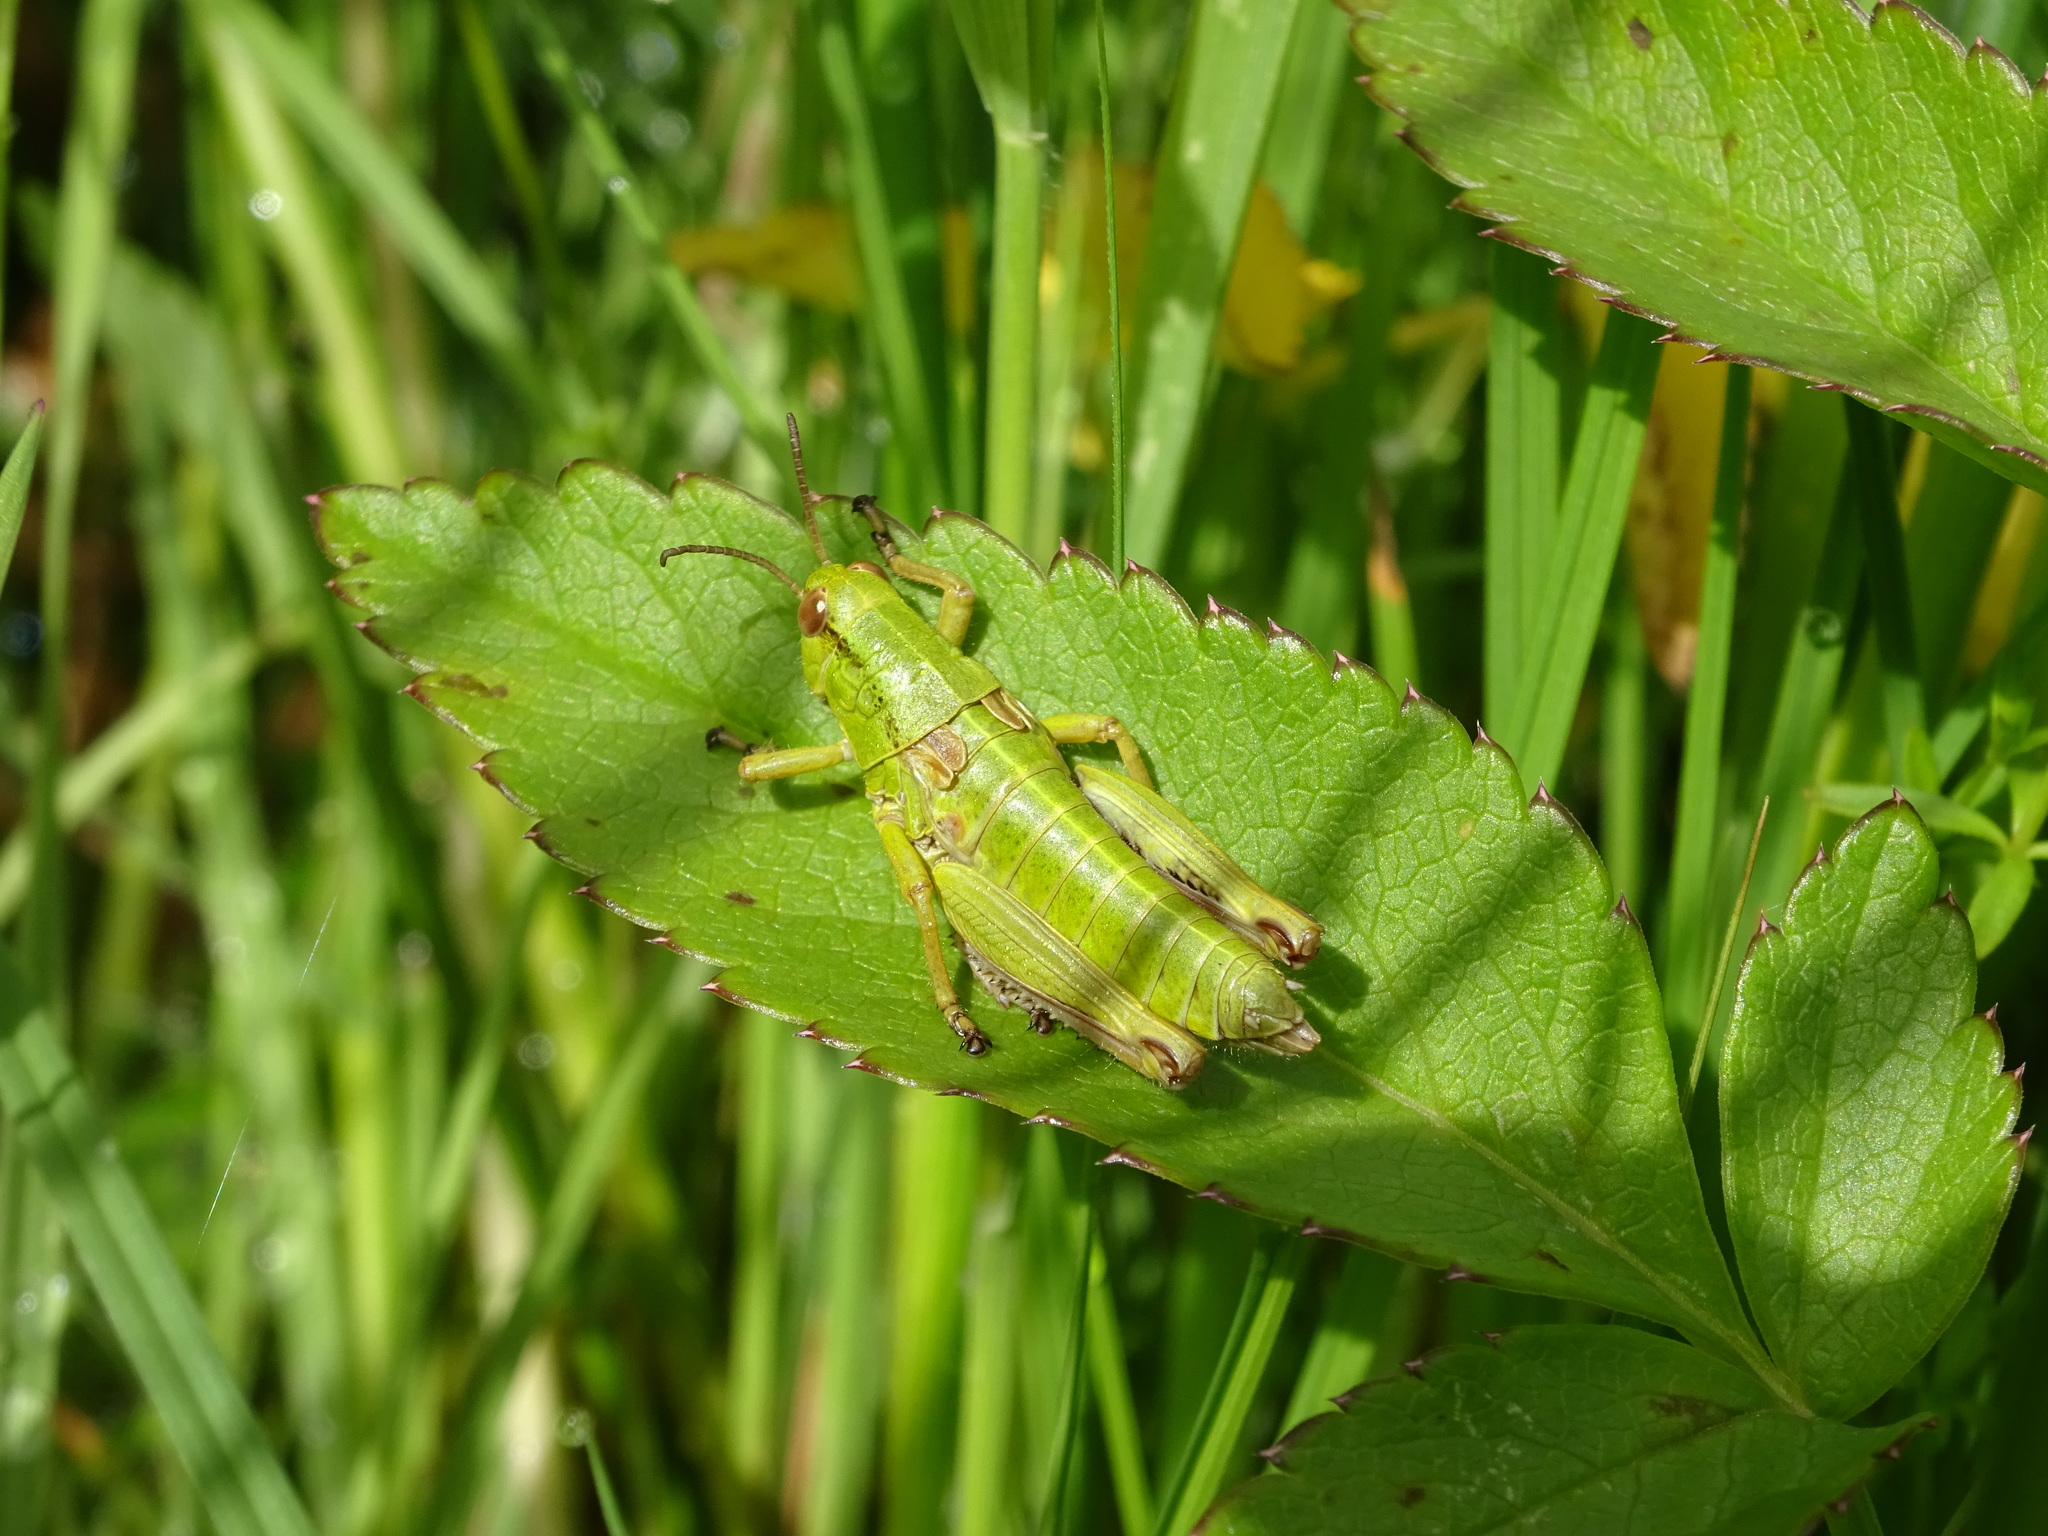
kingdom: Animalia
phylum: Arthropoda
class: Insecta
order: Orthoptera
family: Acrididae
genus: Miramella
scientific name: Miramella alpina
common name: Green mountain grasshopper
